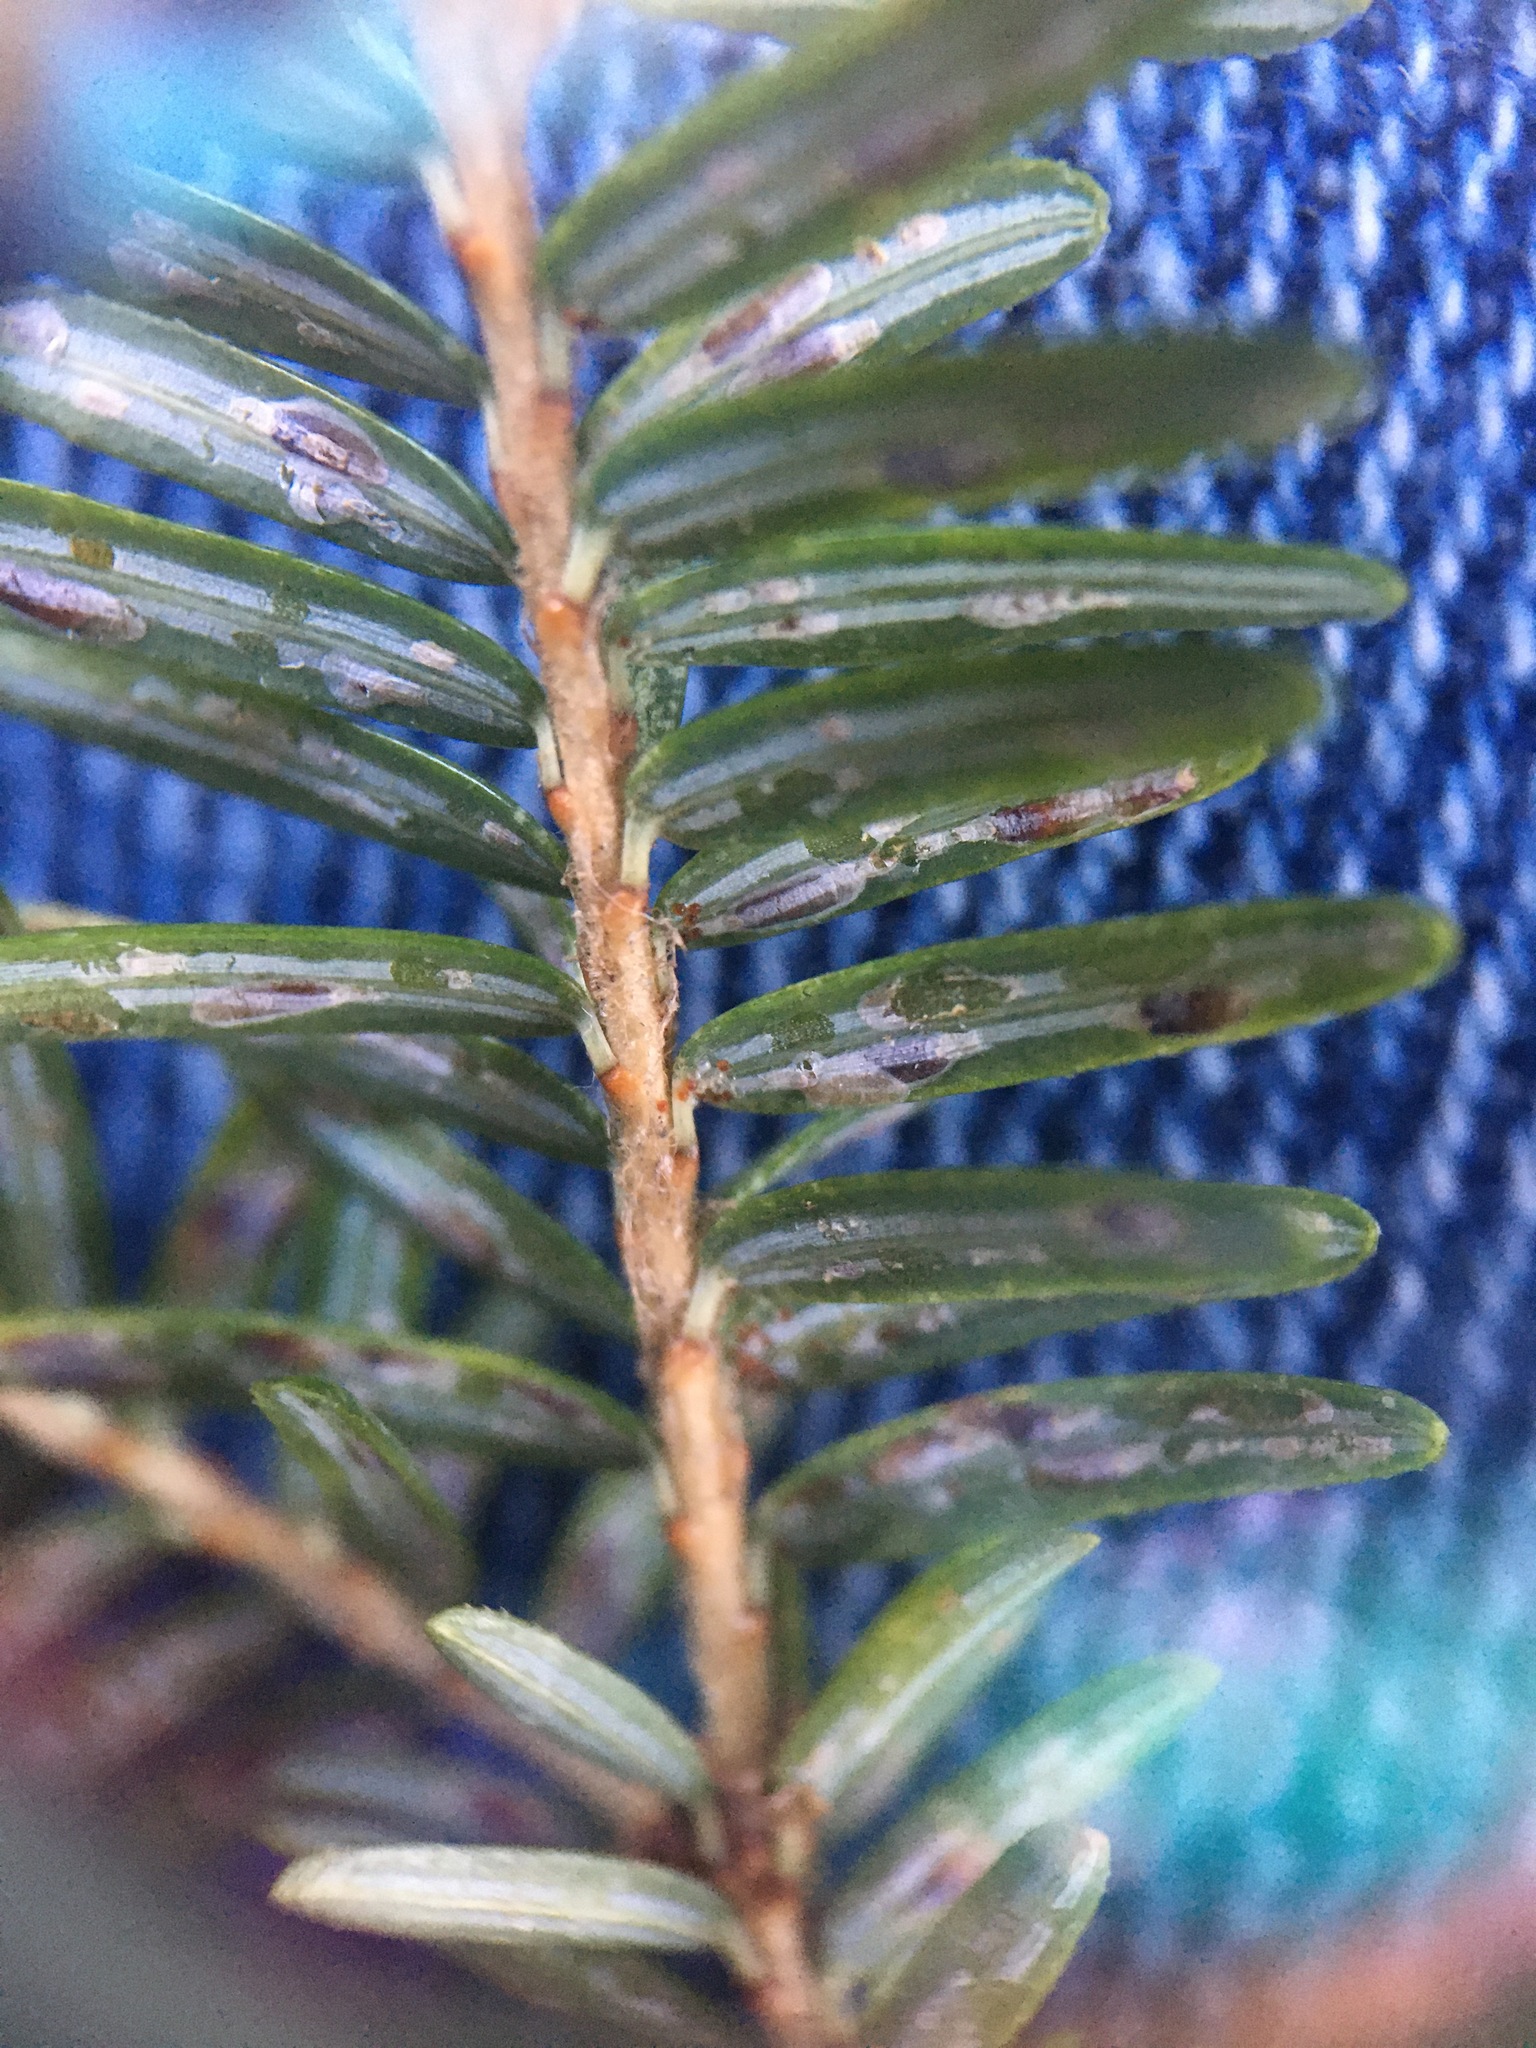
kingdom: Animalia
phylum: Arthropoda
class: Insecta
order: Hemiptera
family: Diaspididae
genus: Fiorinia
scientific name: Fiorinia externa
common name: Elongate hemlock scale
